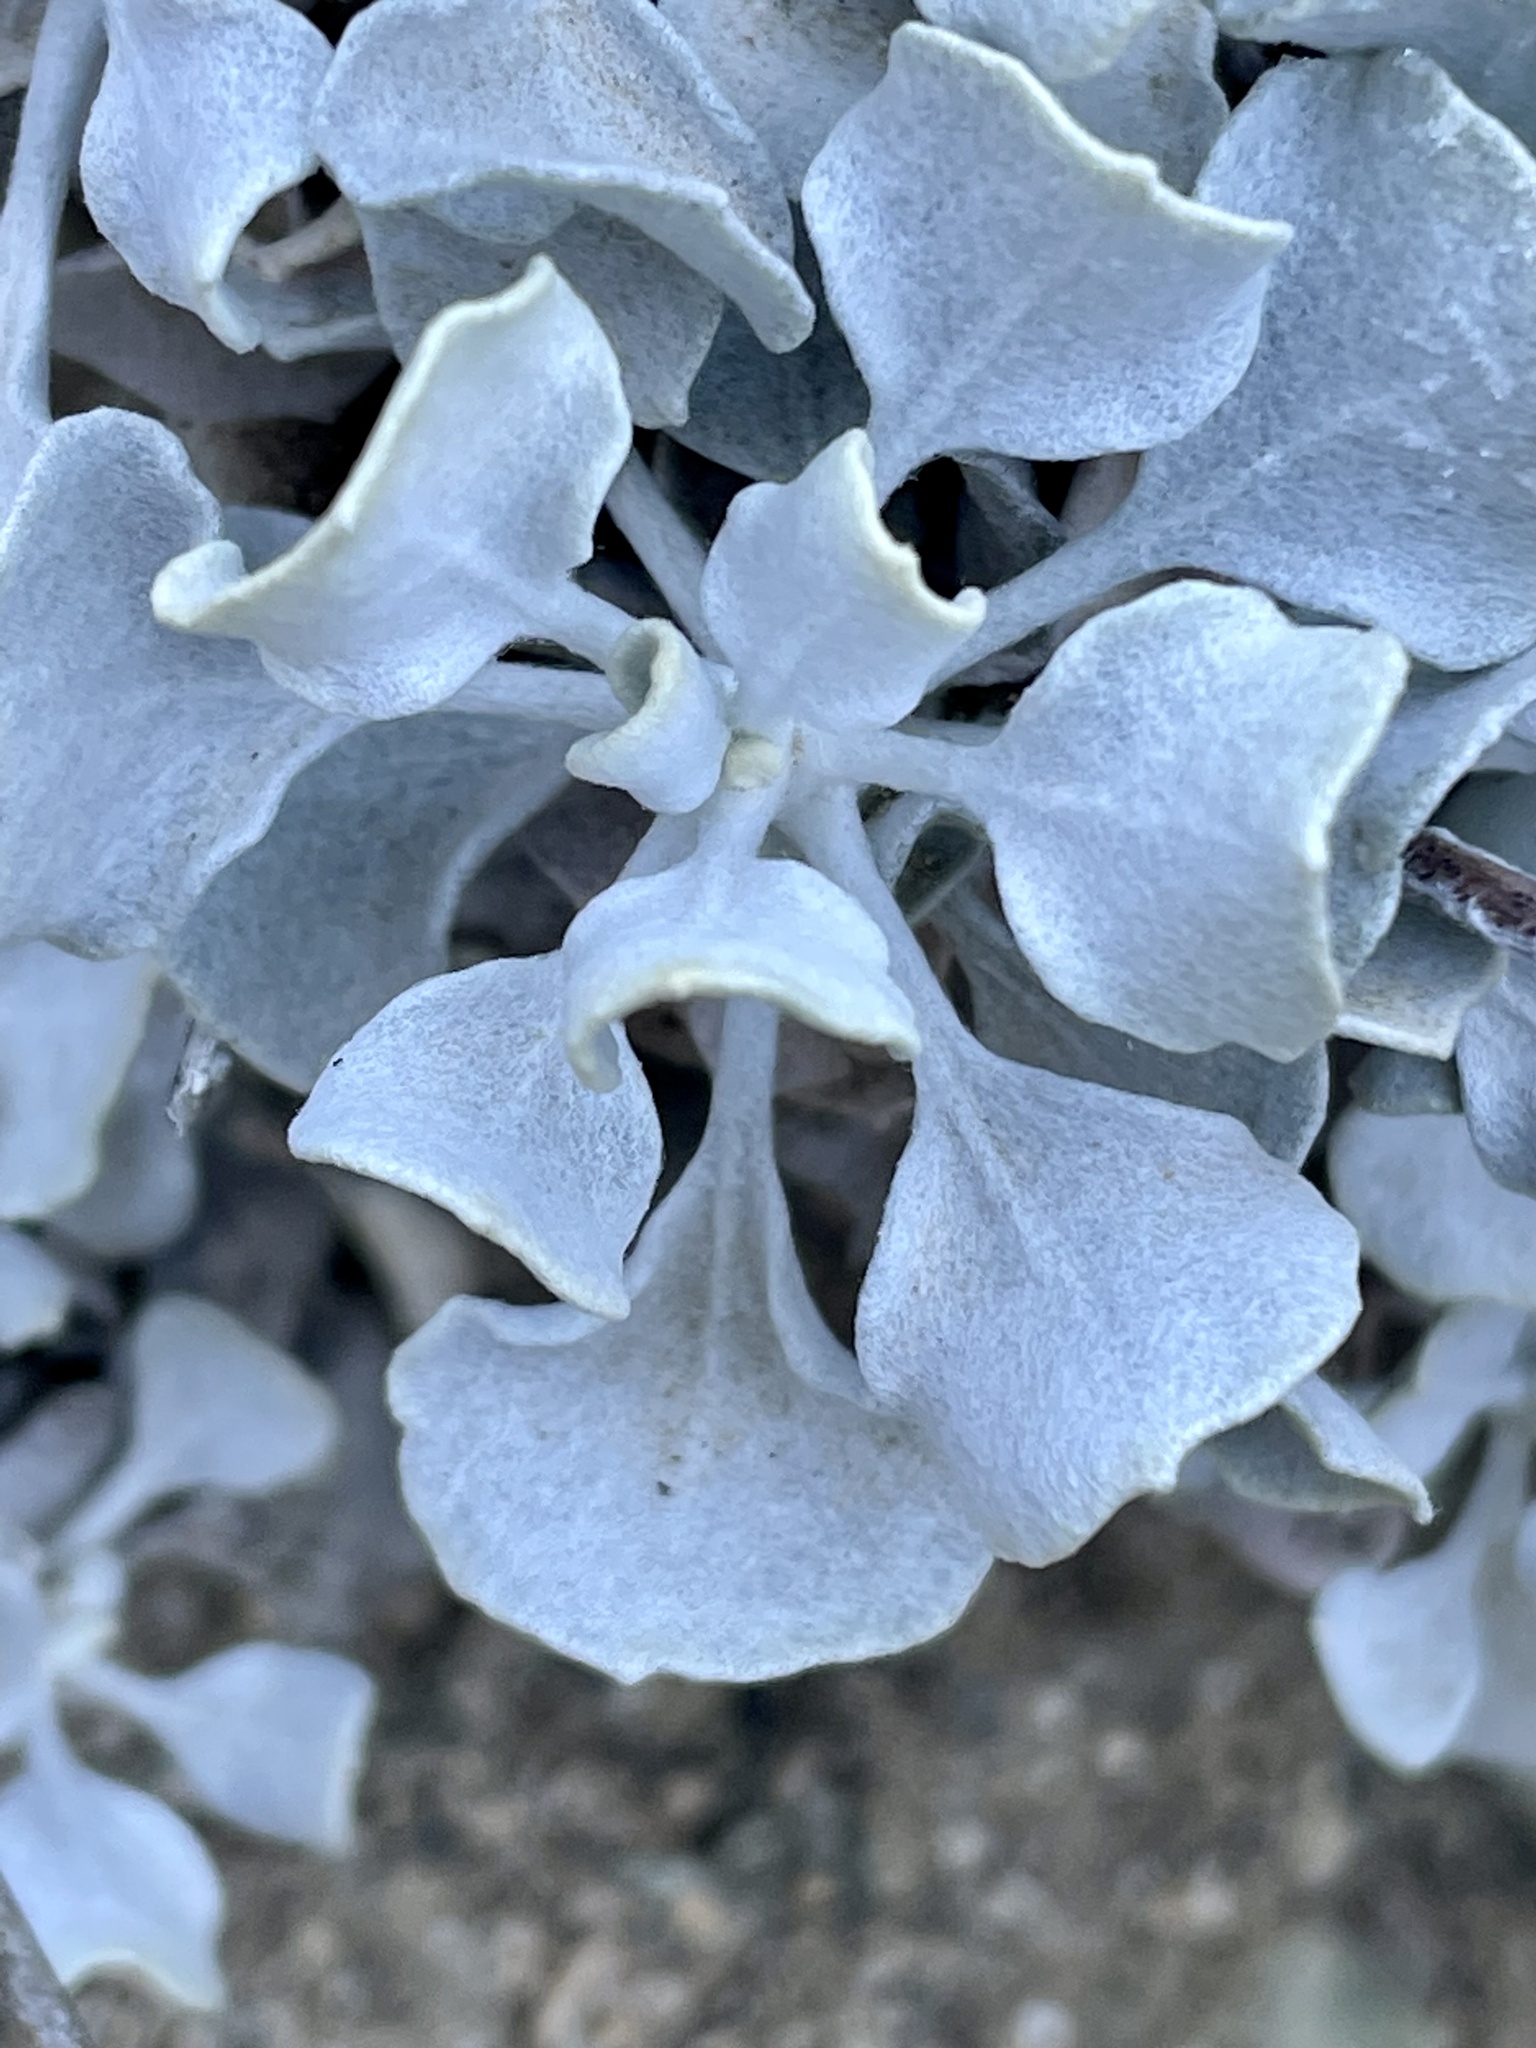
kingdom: Plantae
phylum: Tracheophyta
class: Magnoliopsida
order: Caryophyllales
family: Polygonaceae
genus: Eriogonum
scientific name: Eriogonum saxatile
